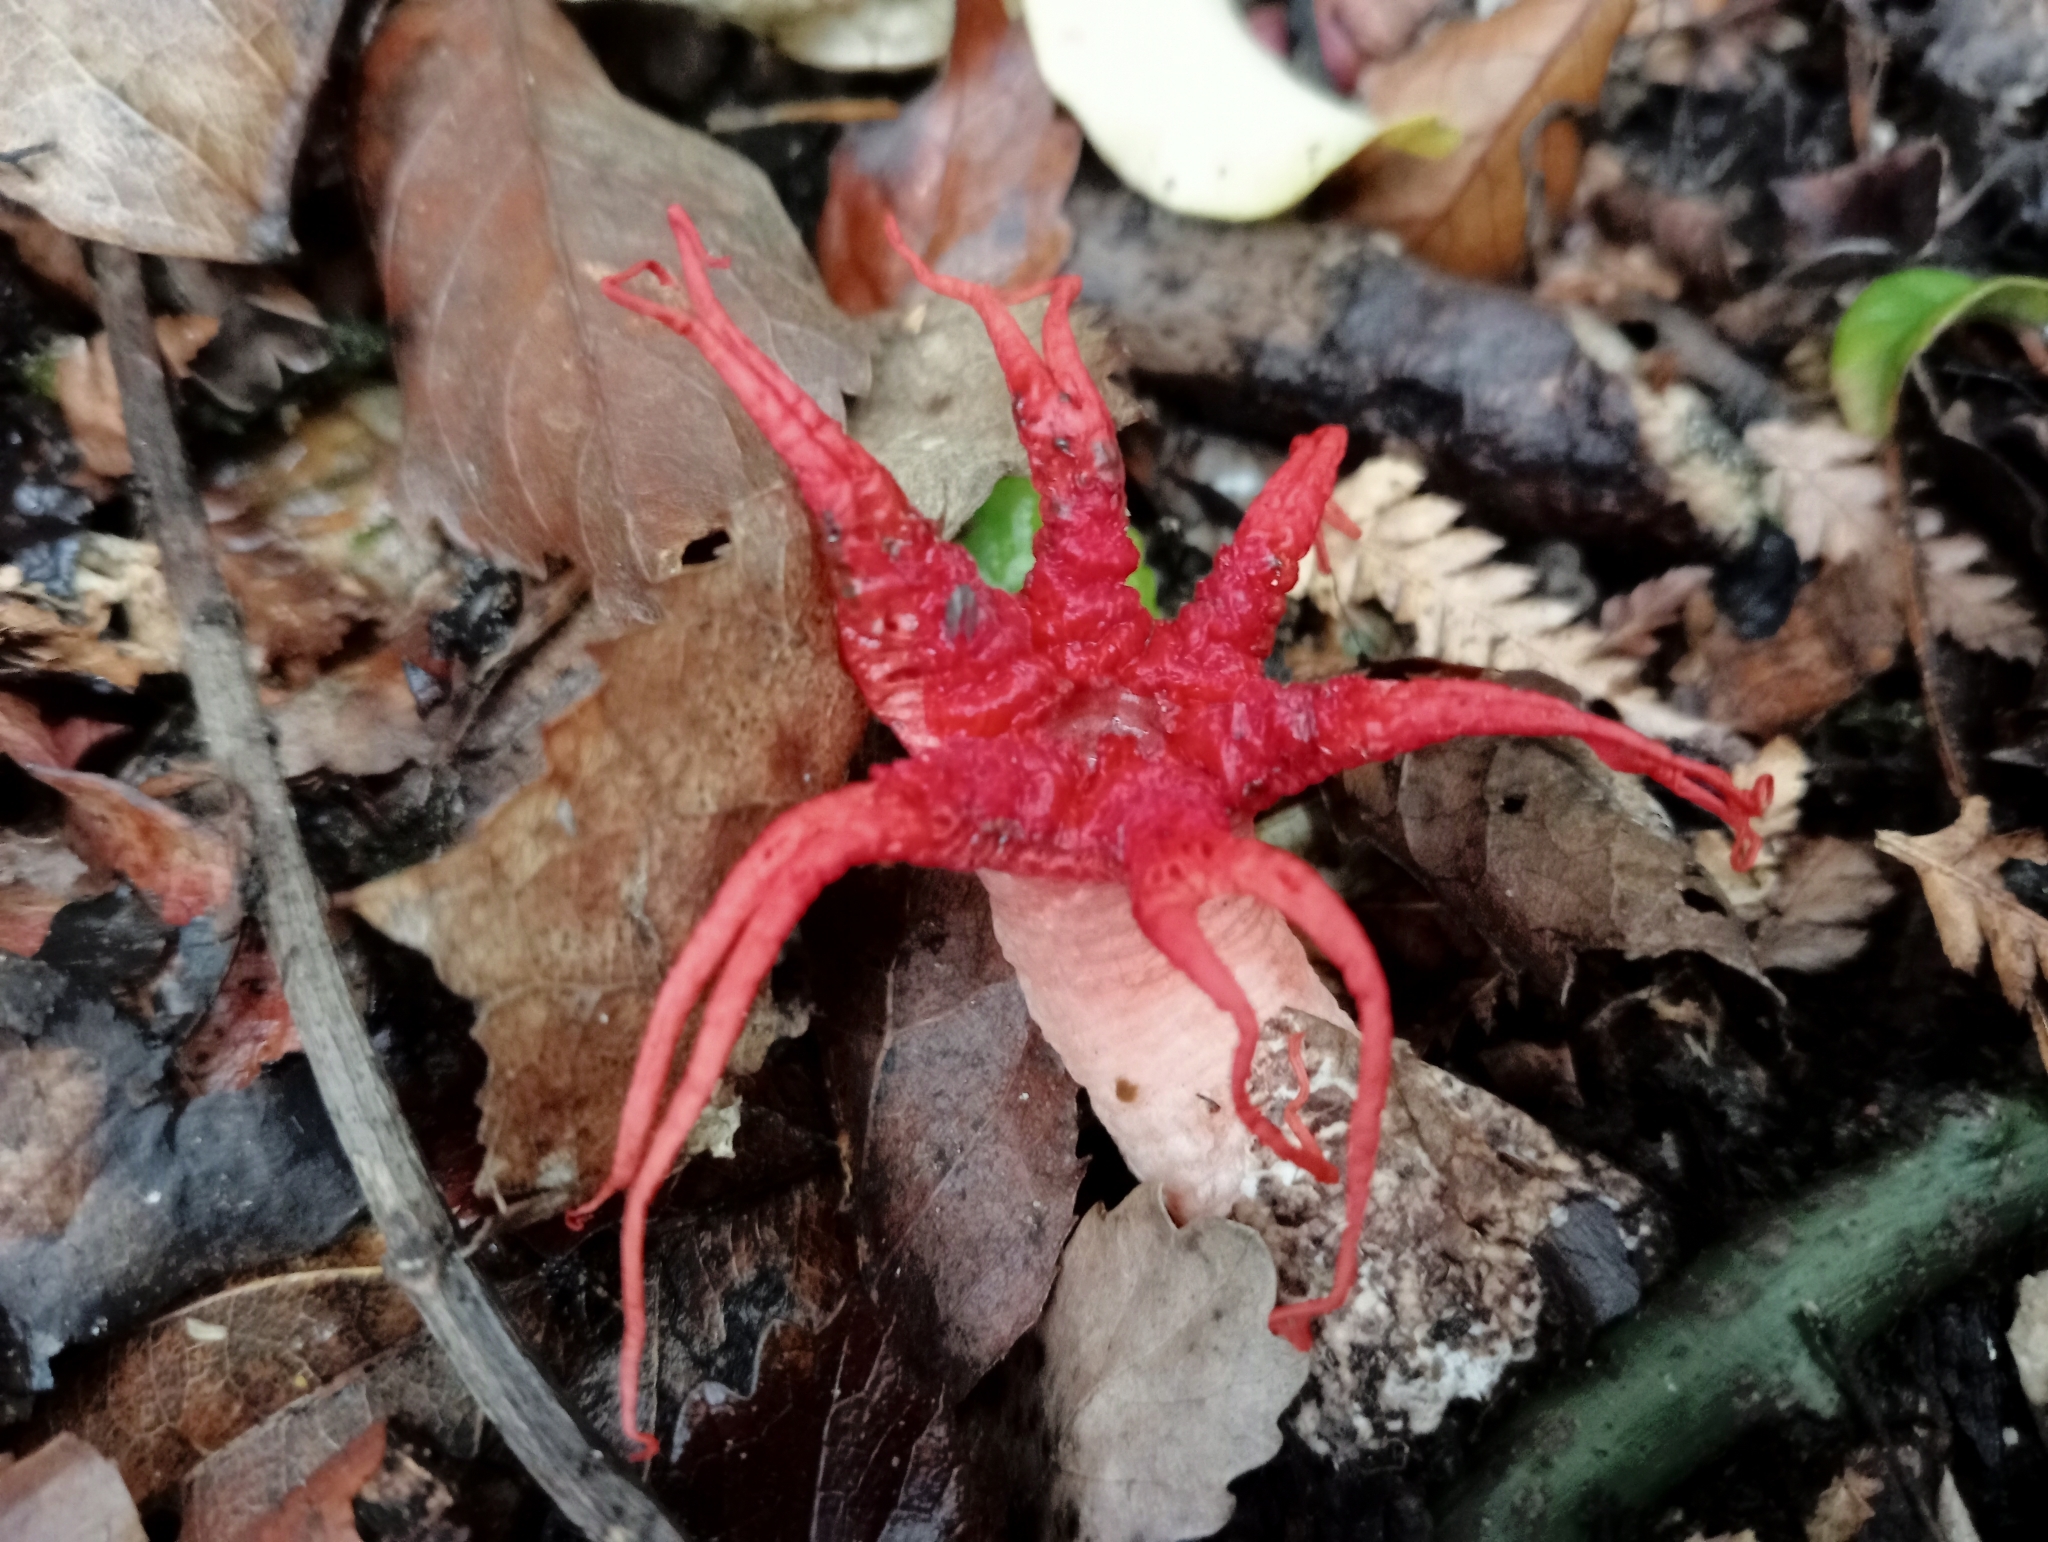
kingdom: Fungi
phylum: Basidiomycota
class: Agaricomycetes
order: Phallales
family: Phallaceae
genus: Aseroe
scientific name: Aseroe rubra
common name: Starfish fungus
